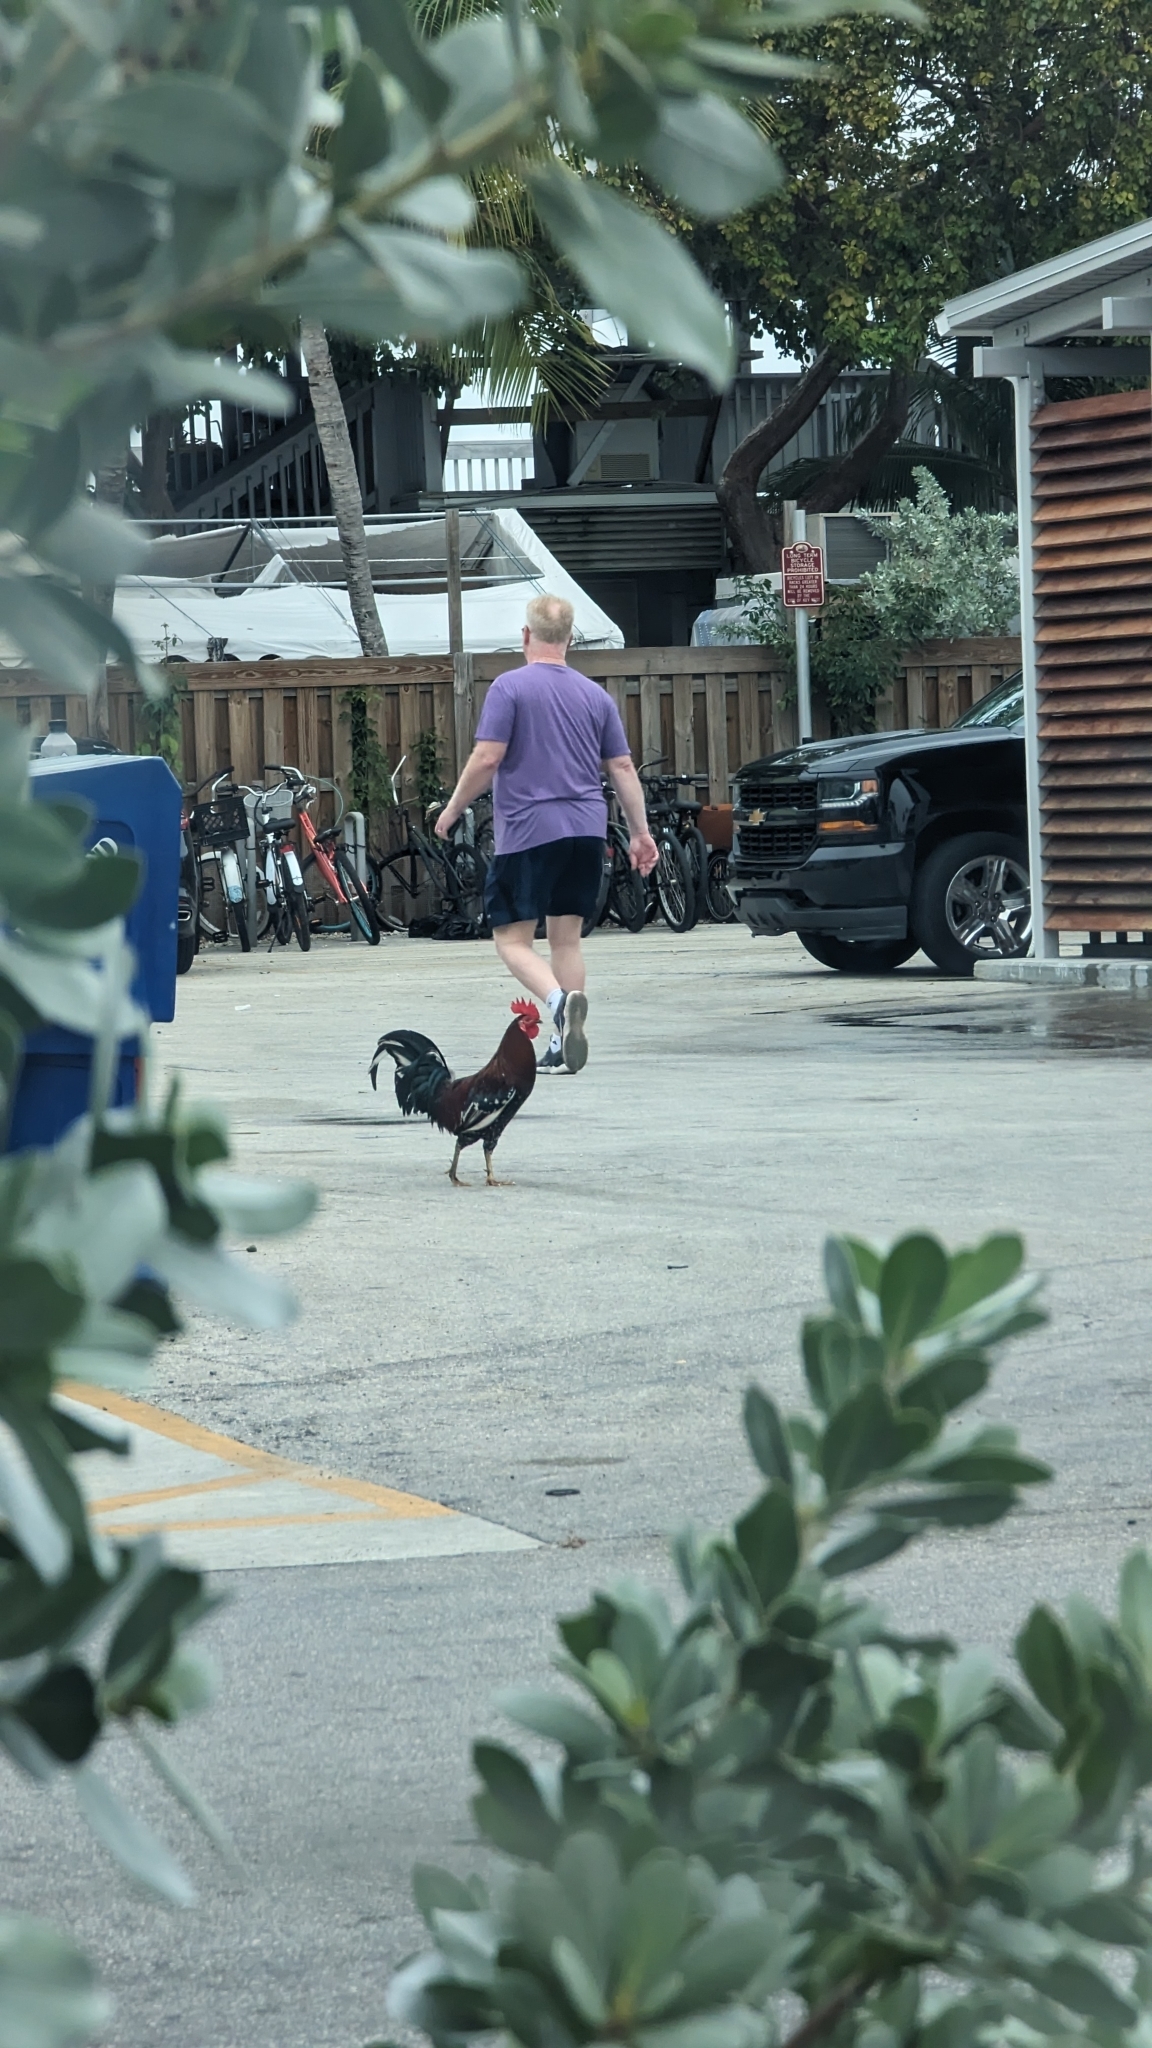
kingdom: Animalia
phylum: Chordata
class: Aves
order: Galliformes
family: Phasianidae
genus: Gallus
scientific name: Gallus gallus
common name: Red junglefowl
